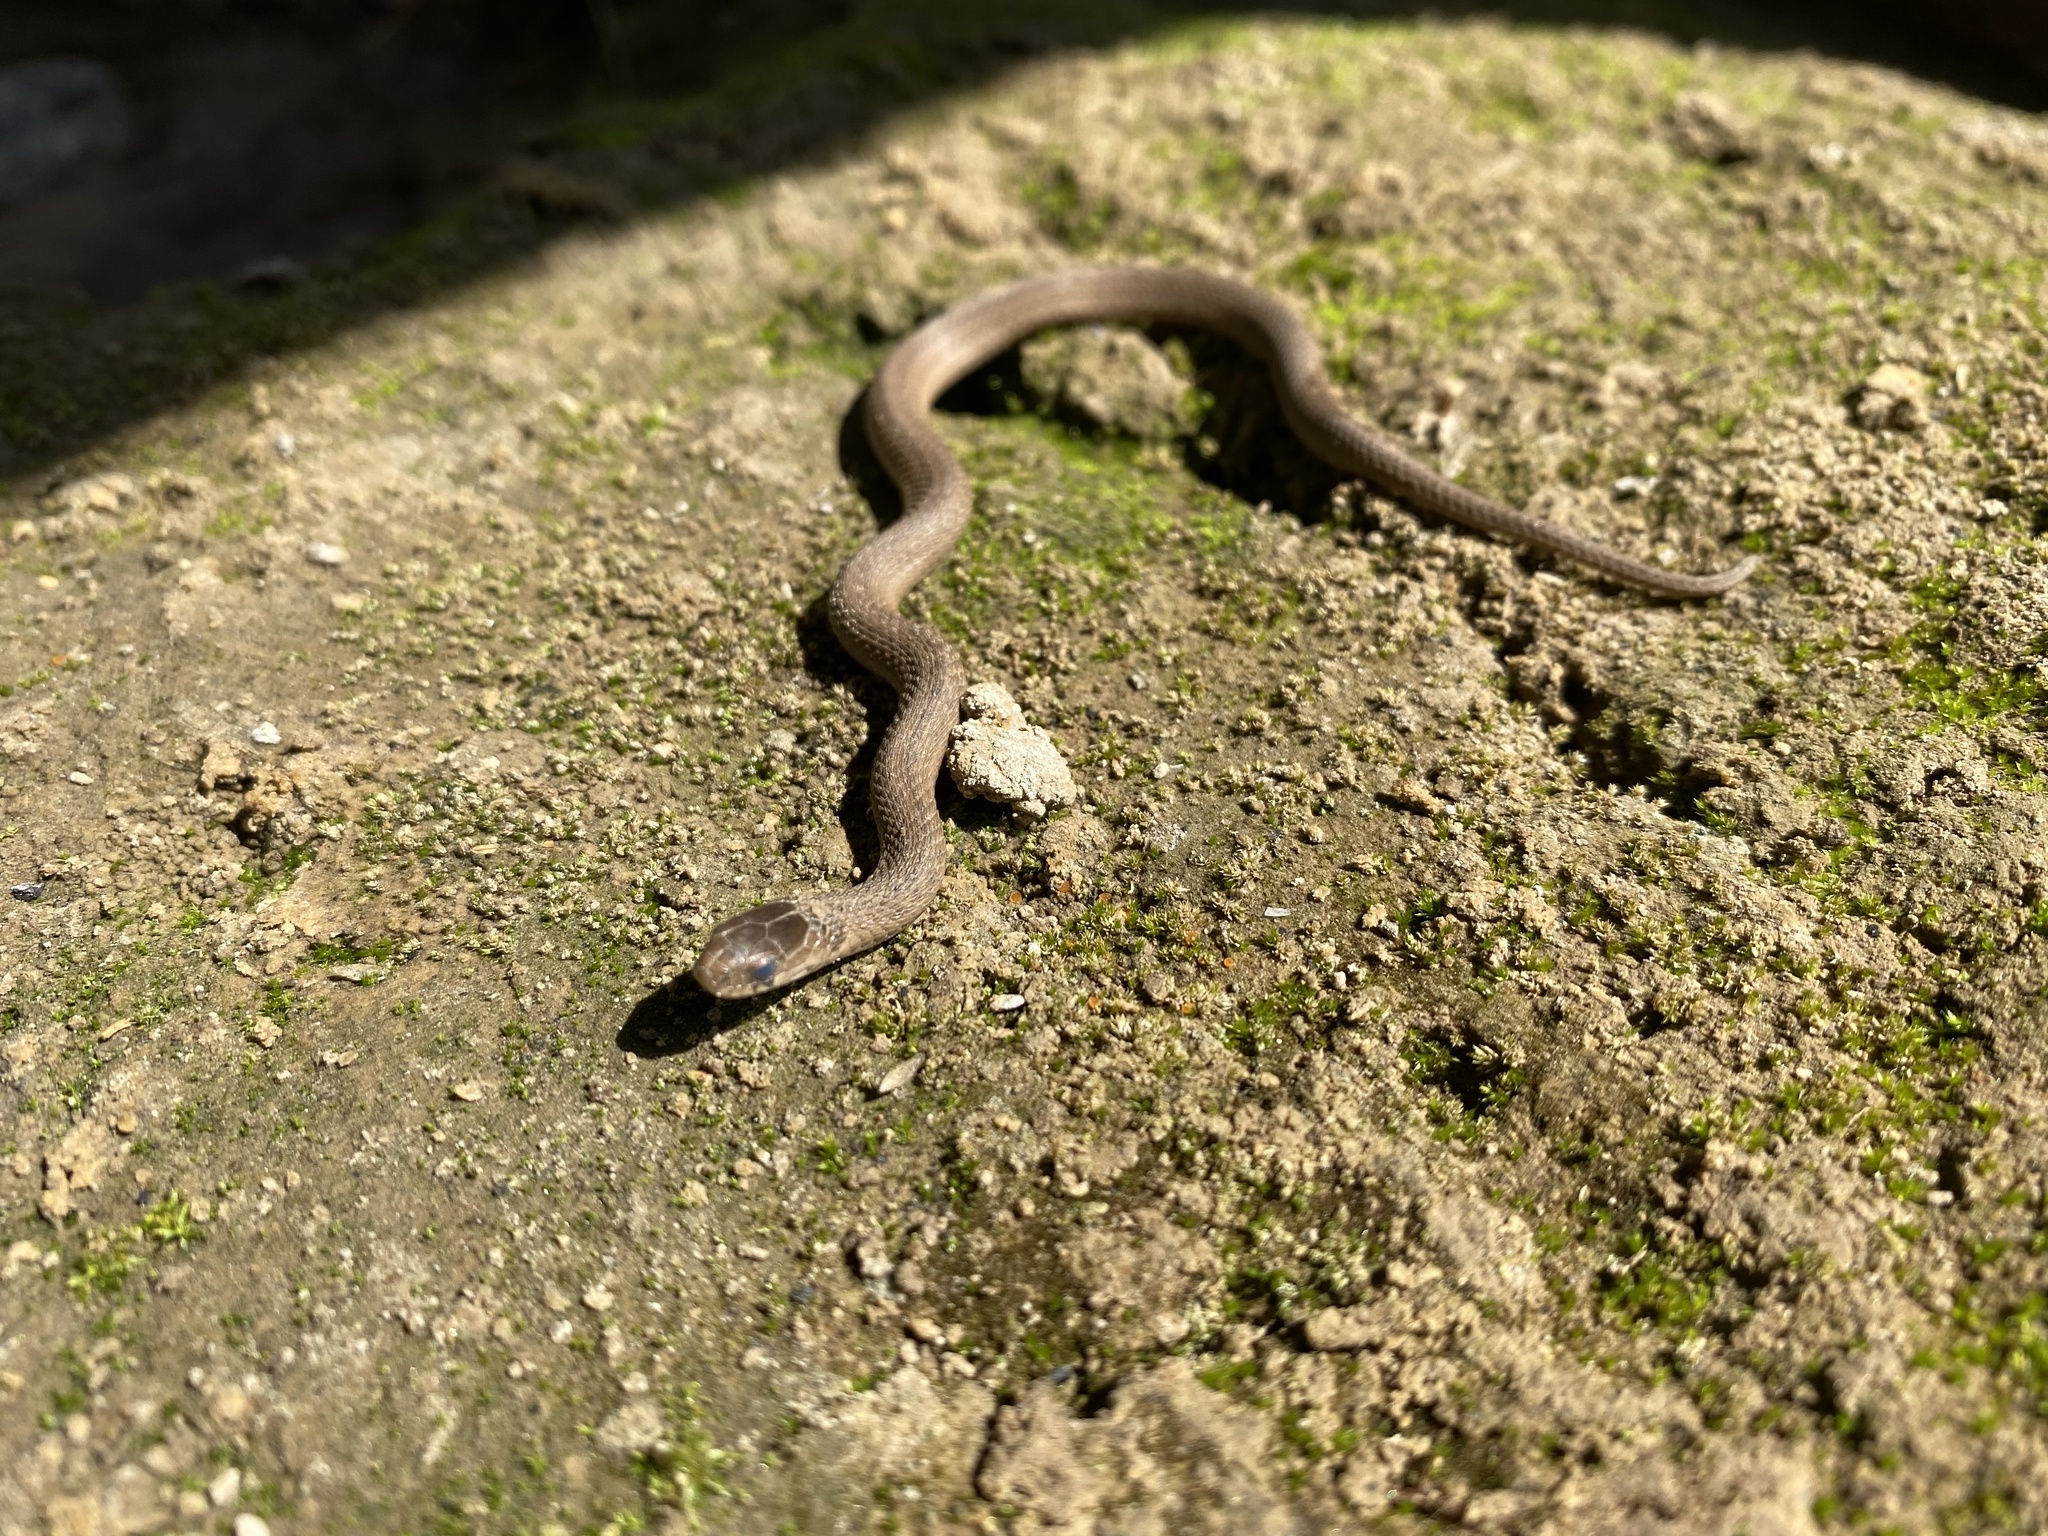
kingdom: Animalia
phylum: Chordata
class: Squamata
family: Colubridae
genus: Storeria
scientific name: Storeria dekayi
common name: (dekay’s) brown snake
